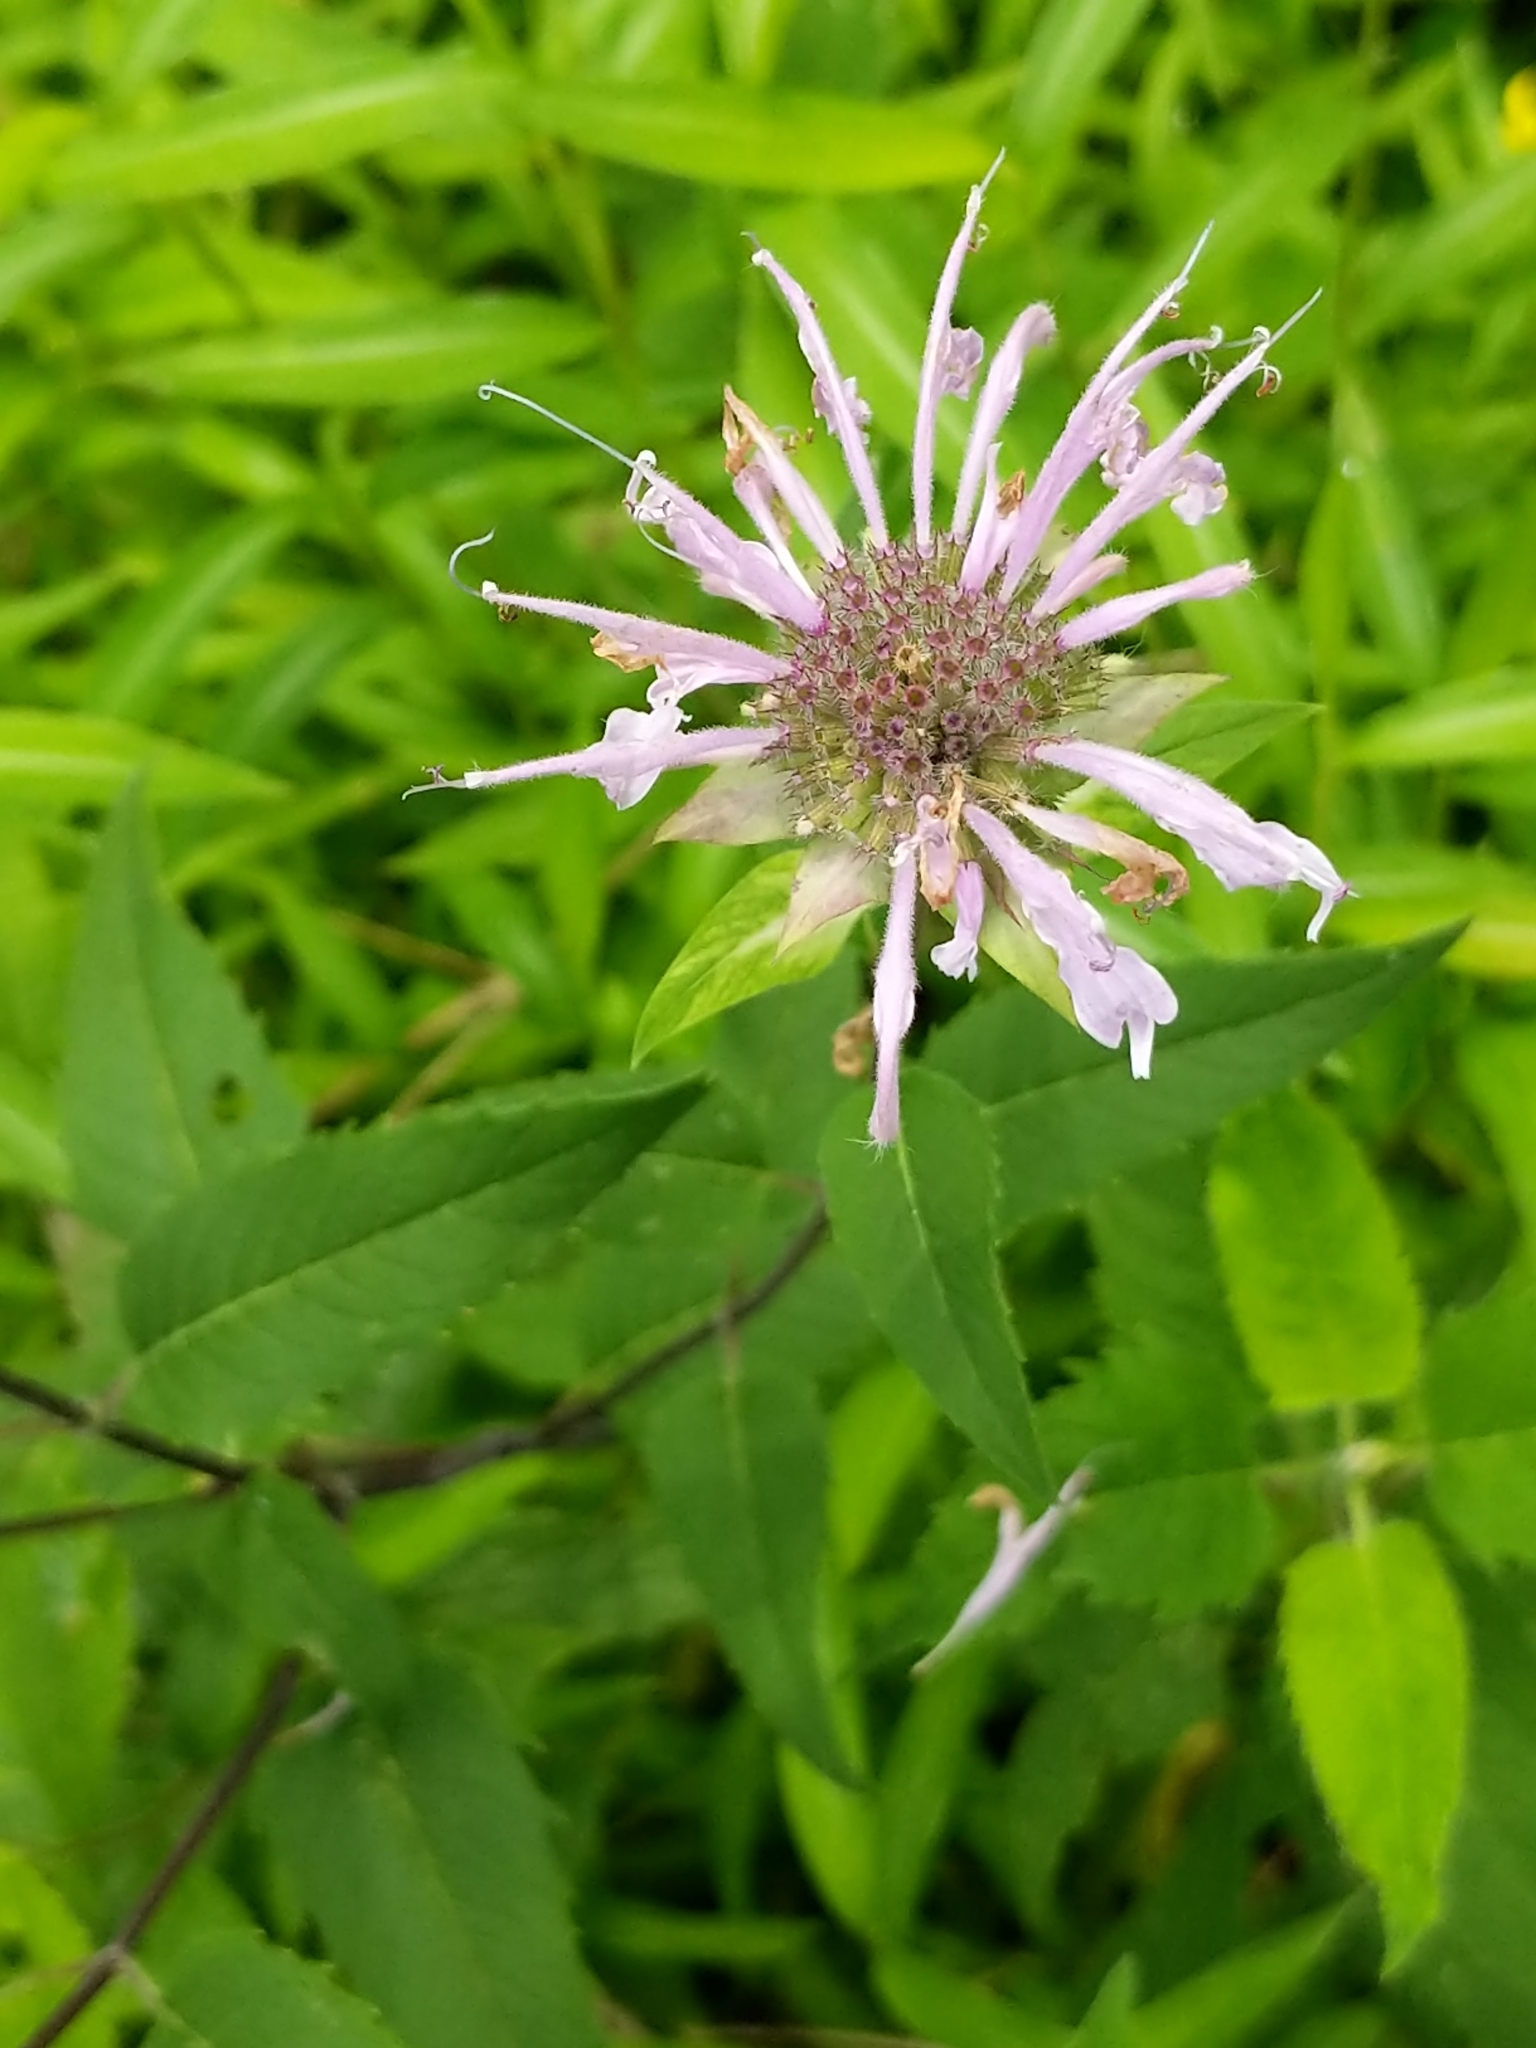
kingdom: Plantae
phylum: Tracheophyta
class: Magnoliopsida
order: Lamiales
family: Lamiaceae
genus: Monarda
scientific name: Monarda fistulosa
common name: Purple beebalm
